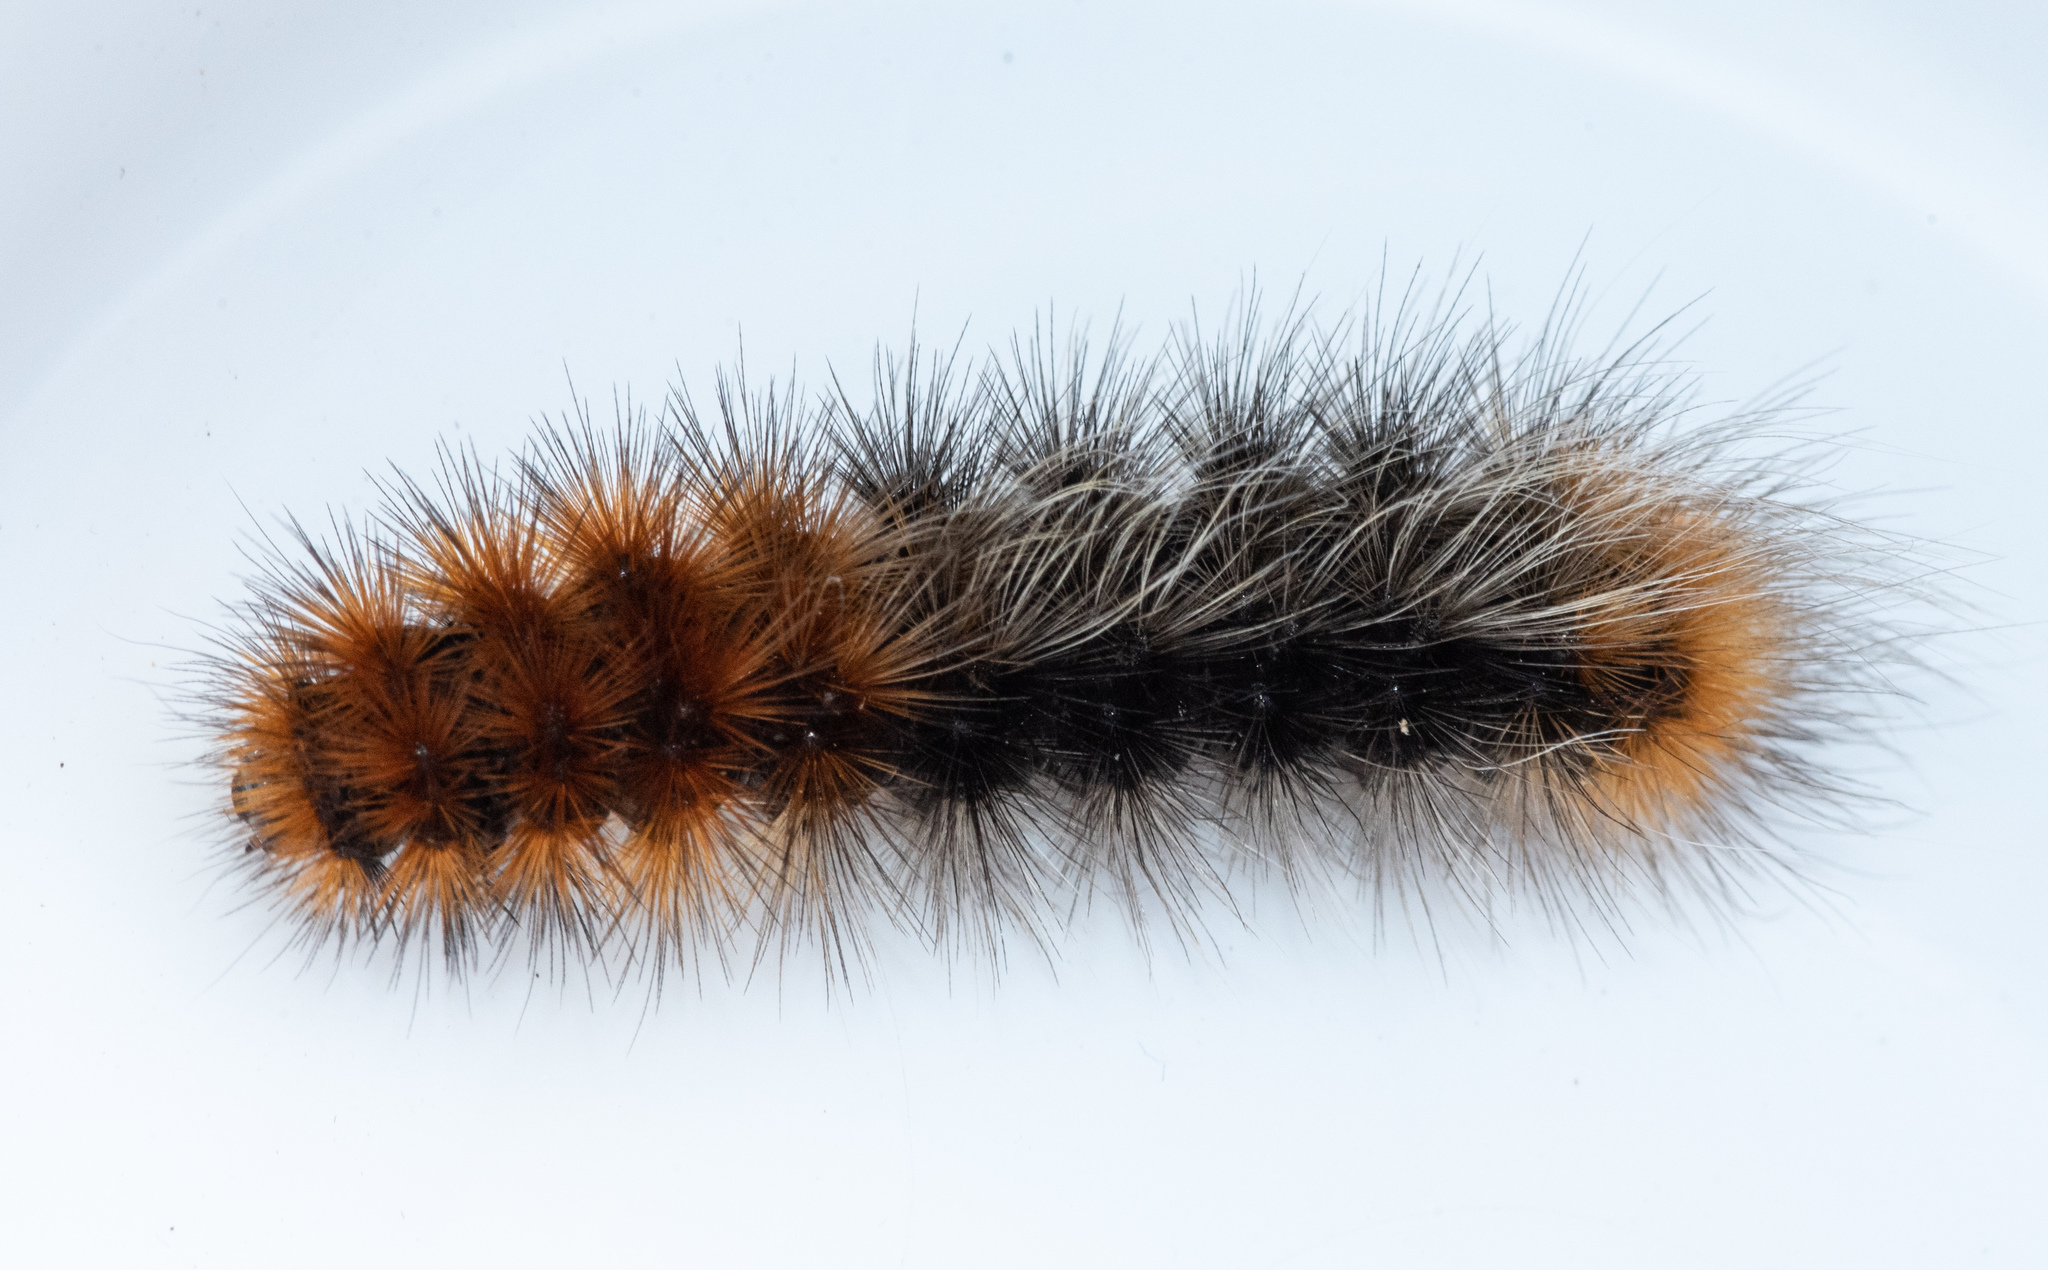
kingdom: Animalia
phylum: Arthropoda
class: Insecta
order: Lepidoptera
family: Erebidae
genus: Arctia
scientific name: Arctia tigrina
